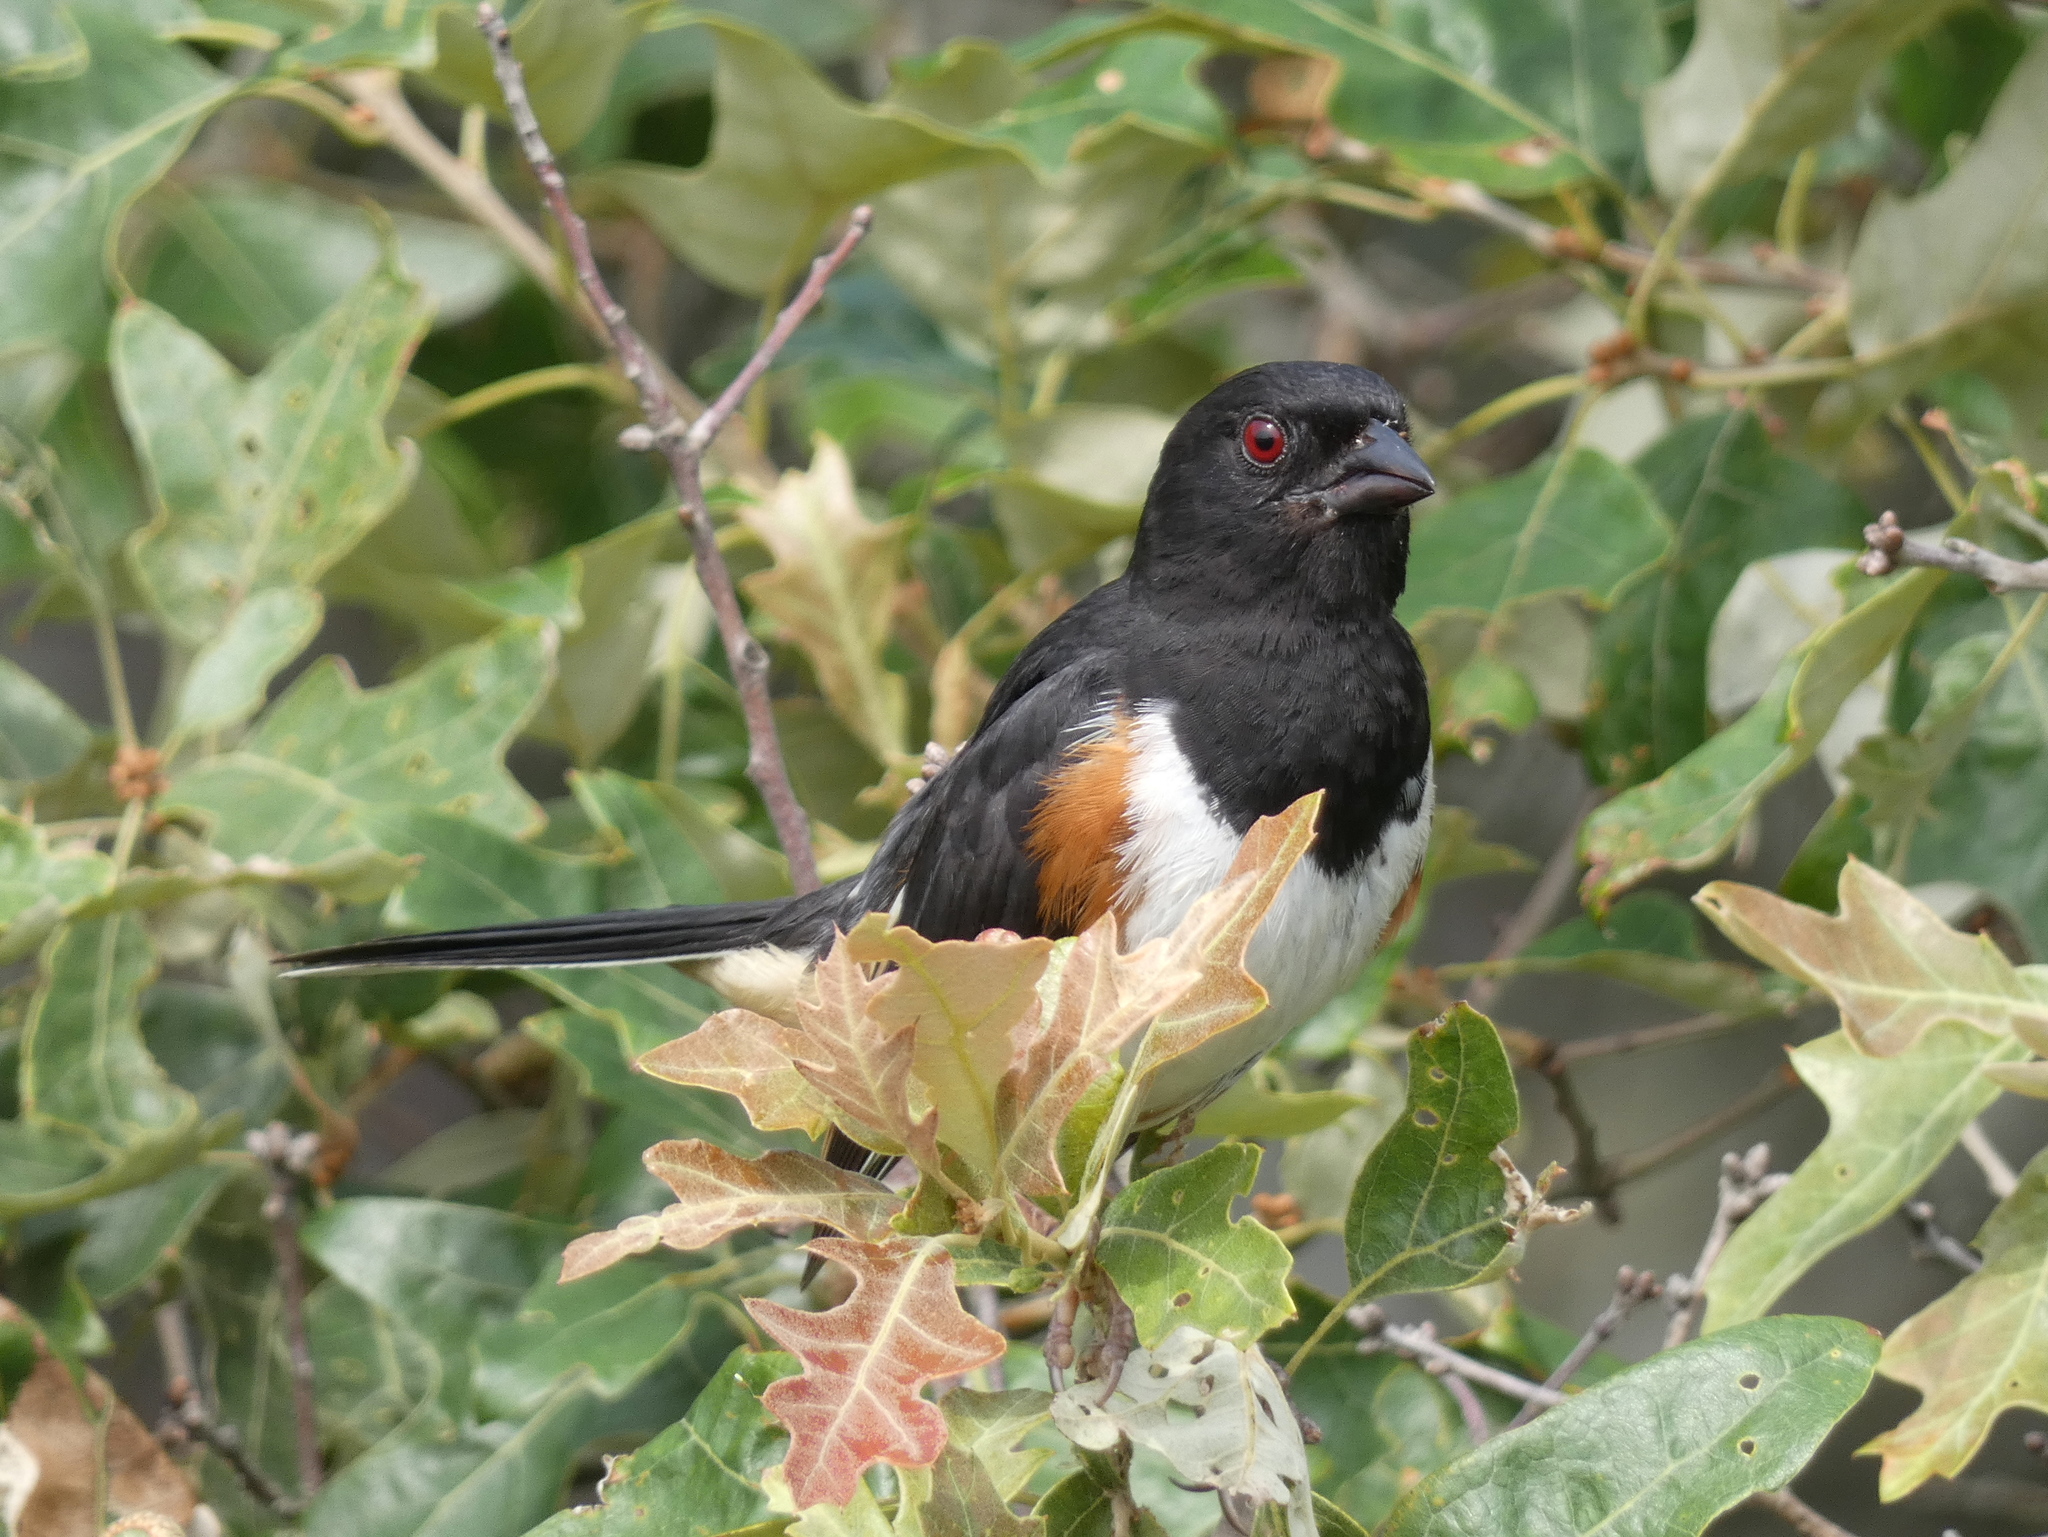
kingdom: Animalia
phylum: Chordata
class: Aves
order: Passeriformes
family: Passerellidae
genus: Pipilo
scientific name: Pipilo erythrophthalmus
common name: Eastern towhee
